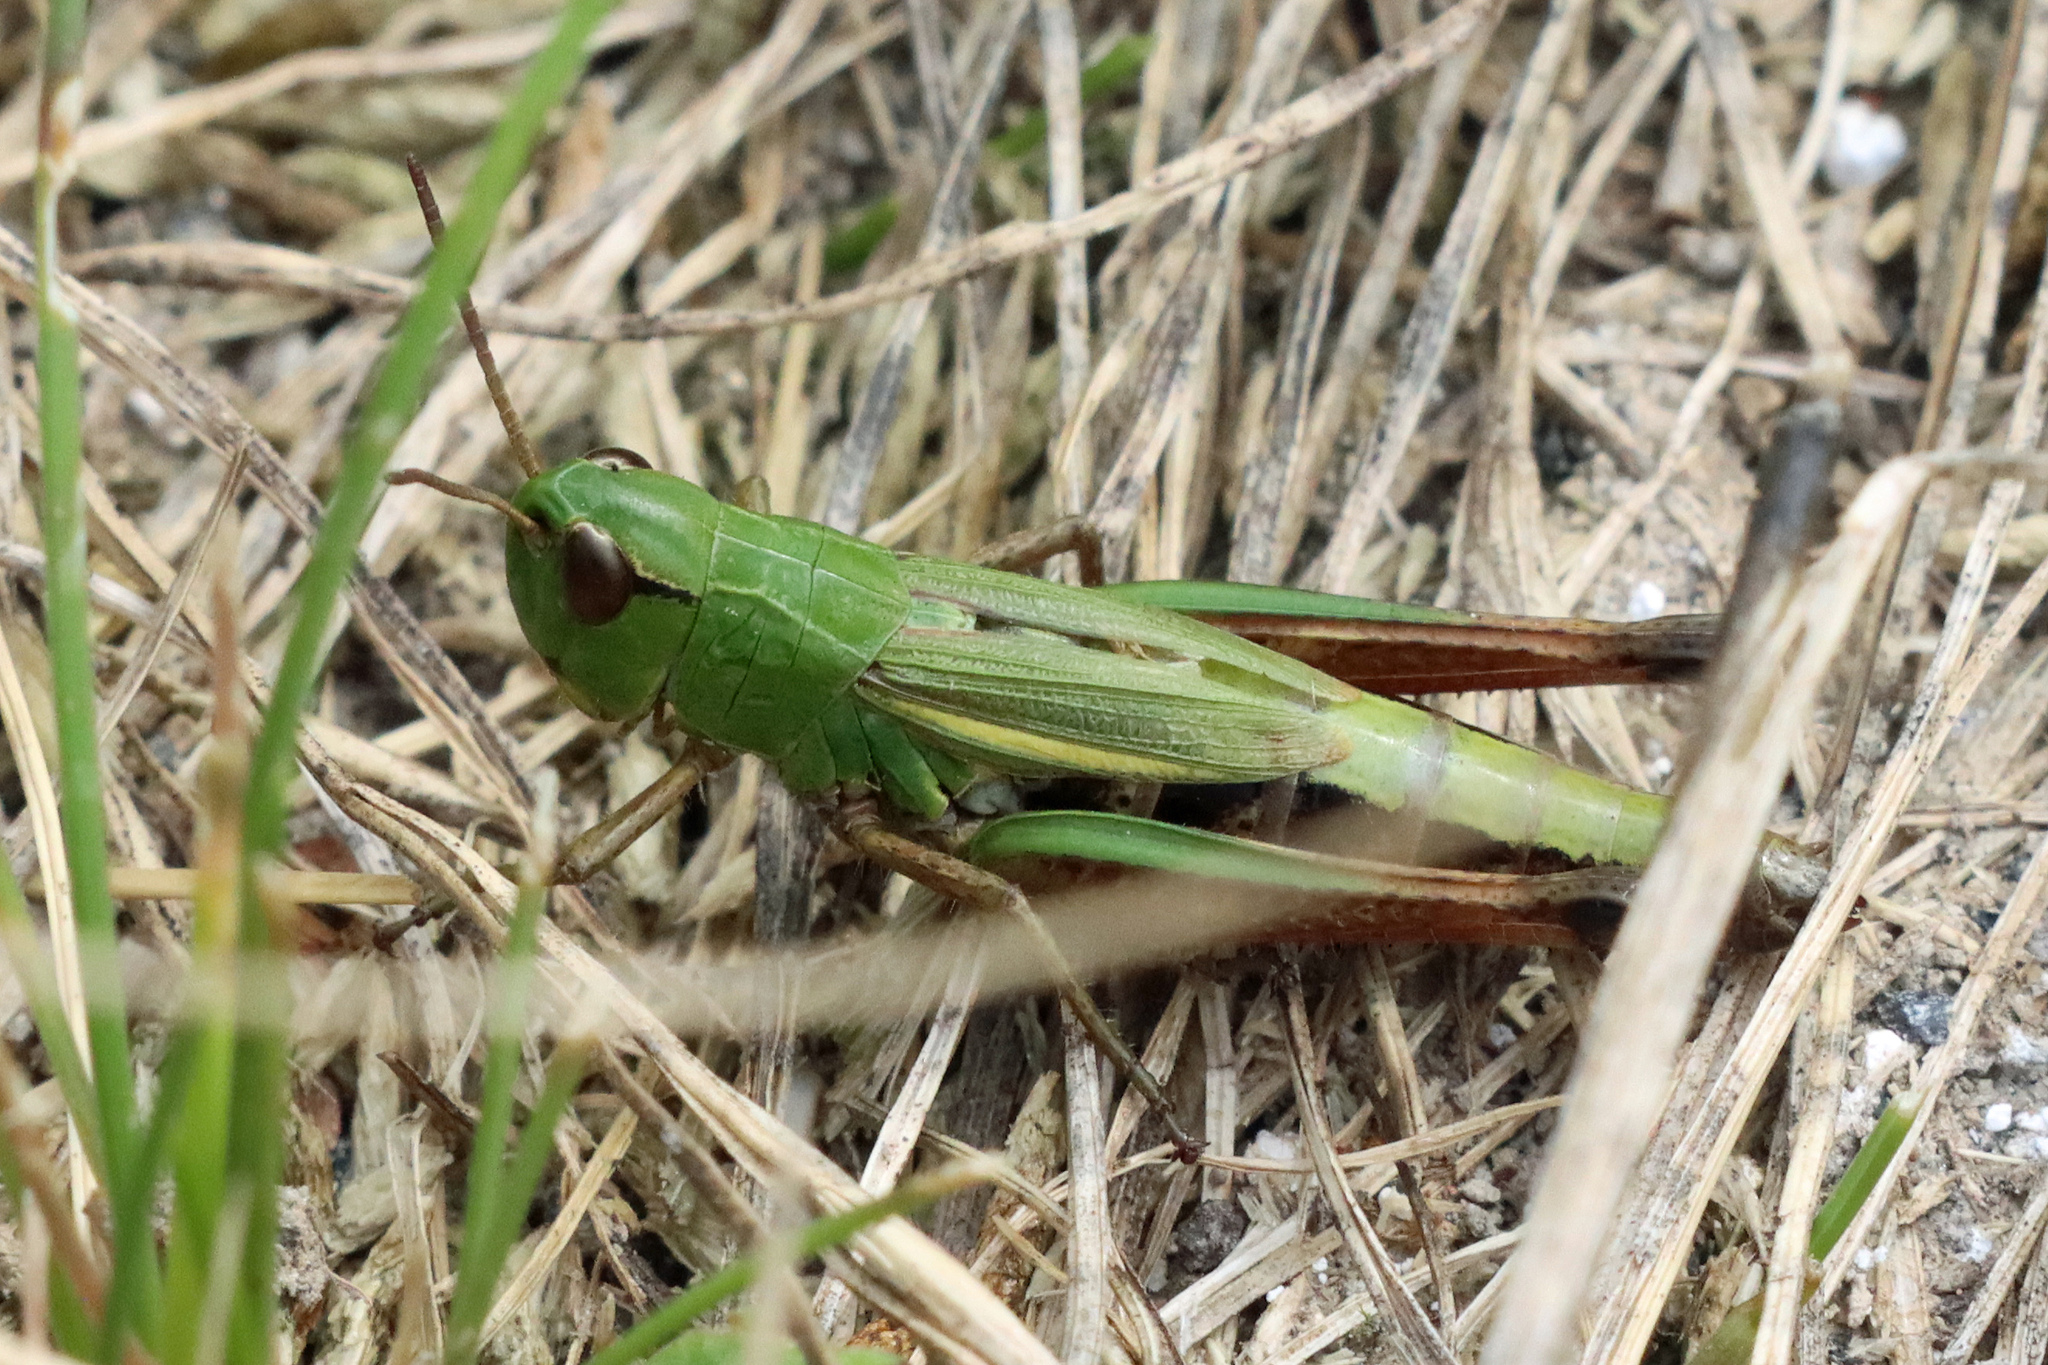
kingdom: Animalia
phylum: Arthropoda
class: Insecta
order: Orthoptera
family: Acrididae
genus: Pseudochorthippus
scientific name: Pseudochorthippus parallelus
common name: Meadow grasshopper
